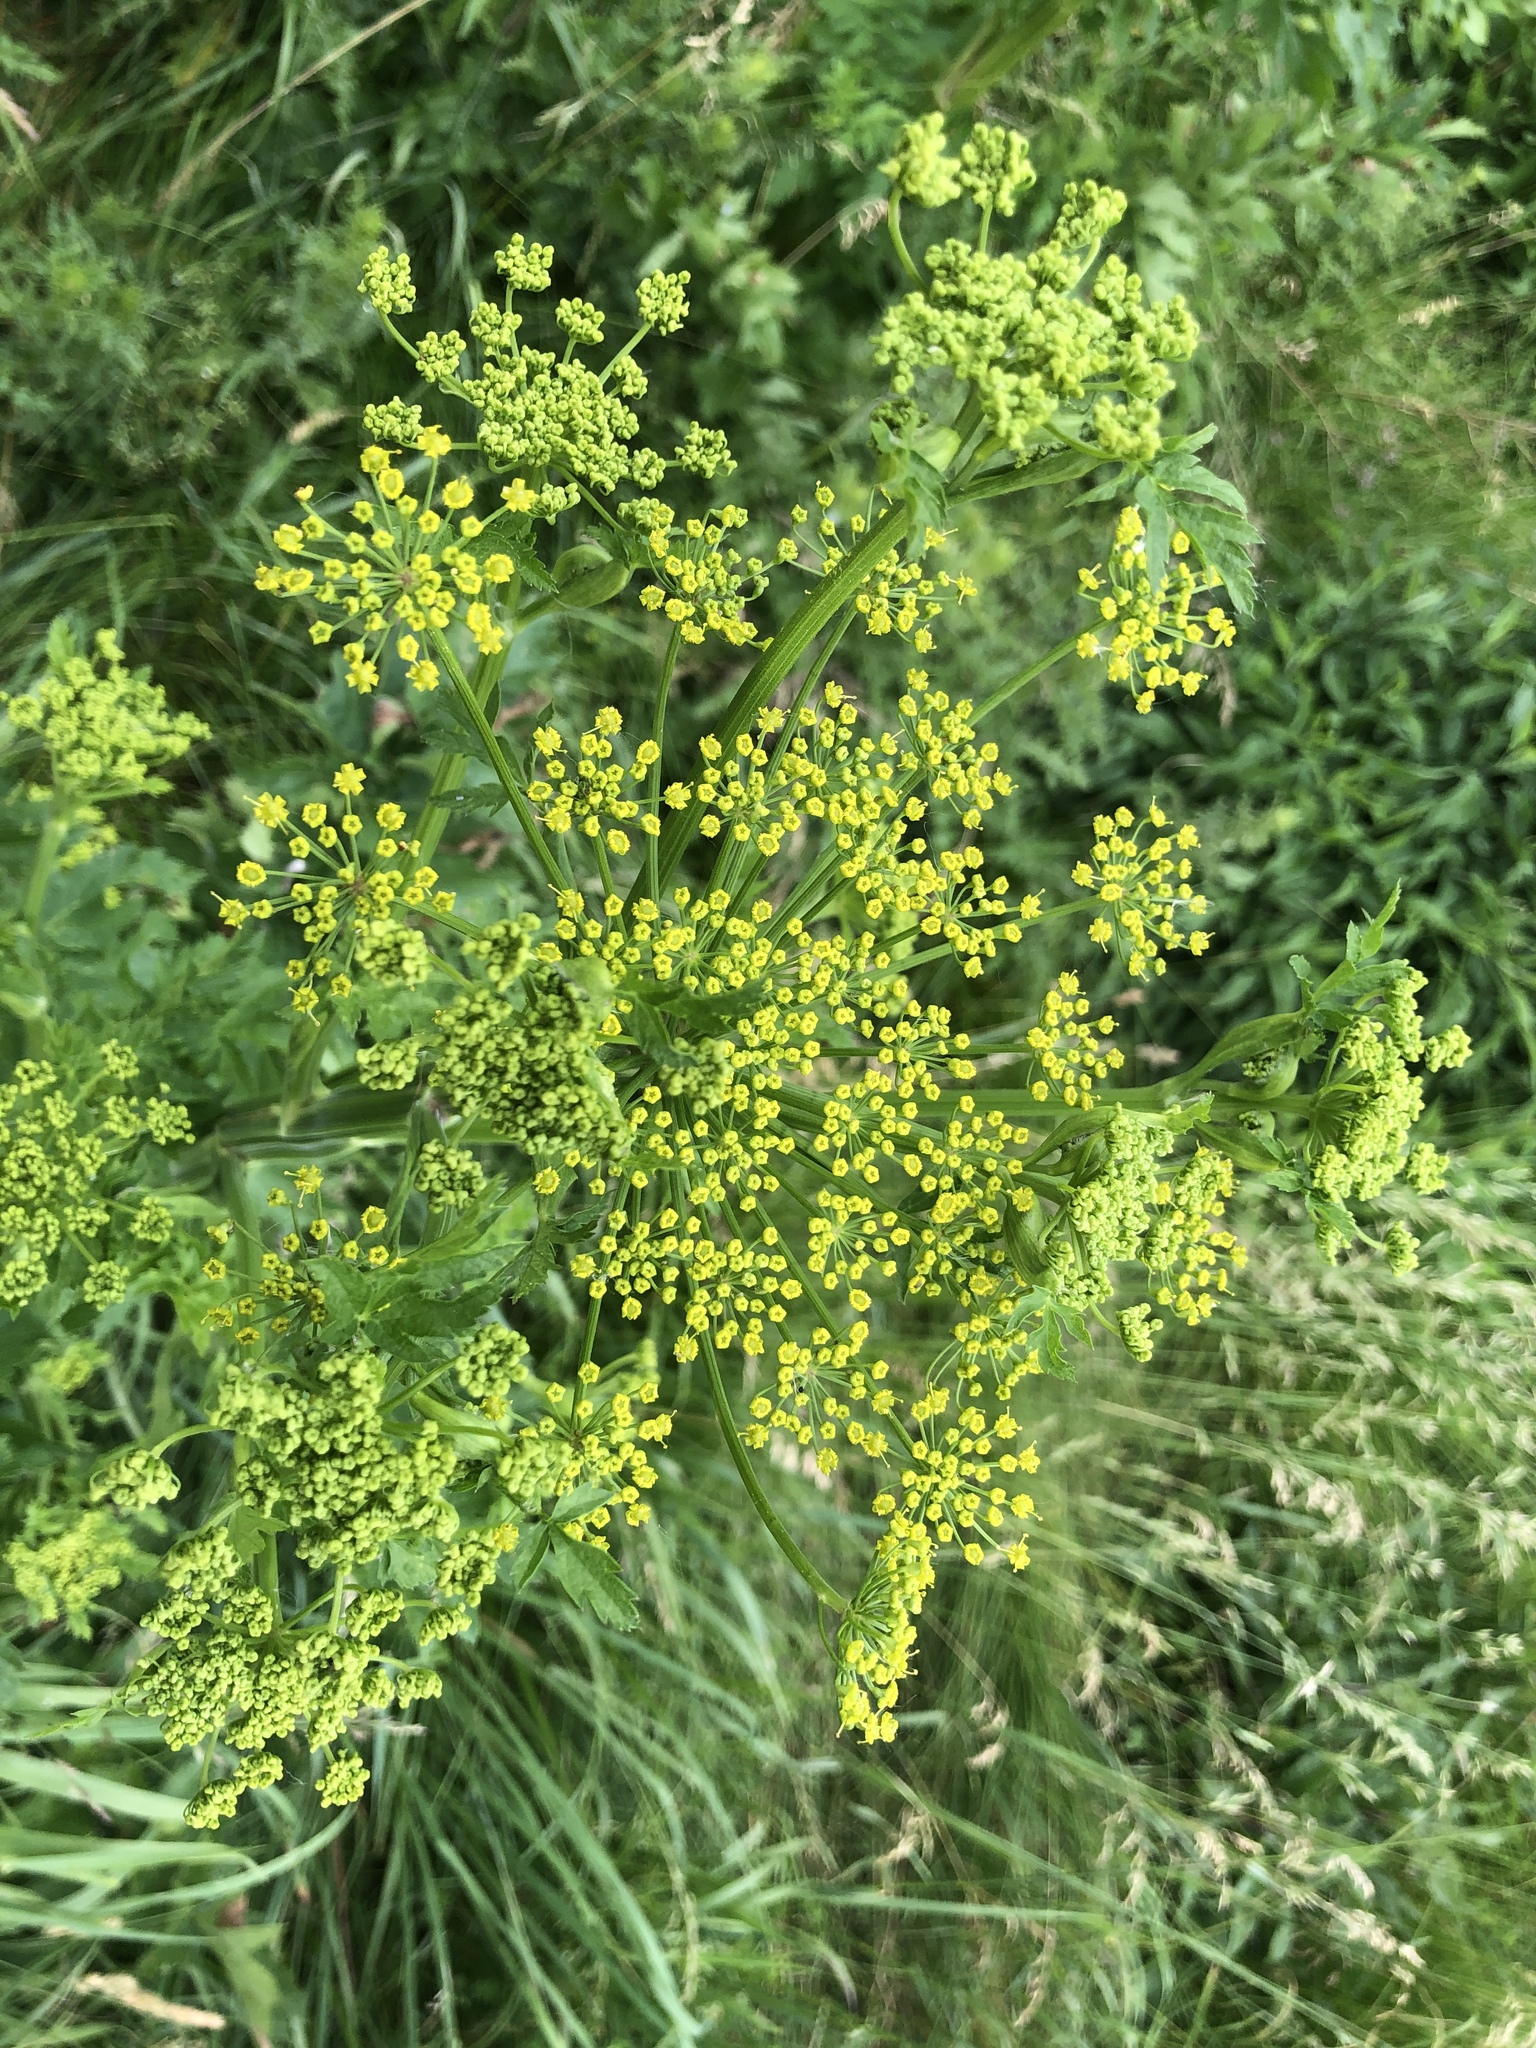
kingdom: Plantae
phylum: Tracheophyta
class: Magnoliopsida
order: Apiales
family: Apiaceae
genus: Pastinaca
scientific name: Pastinaca sativa
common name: Wild parsnip
